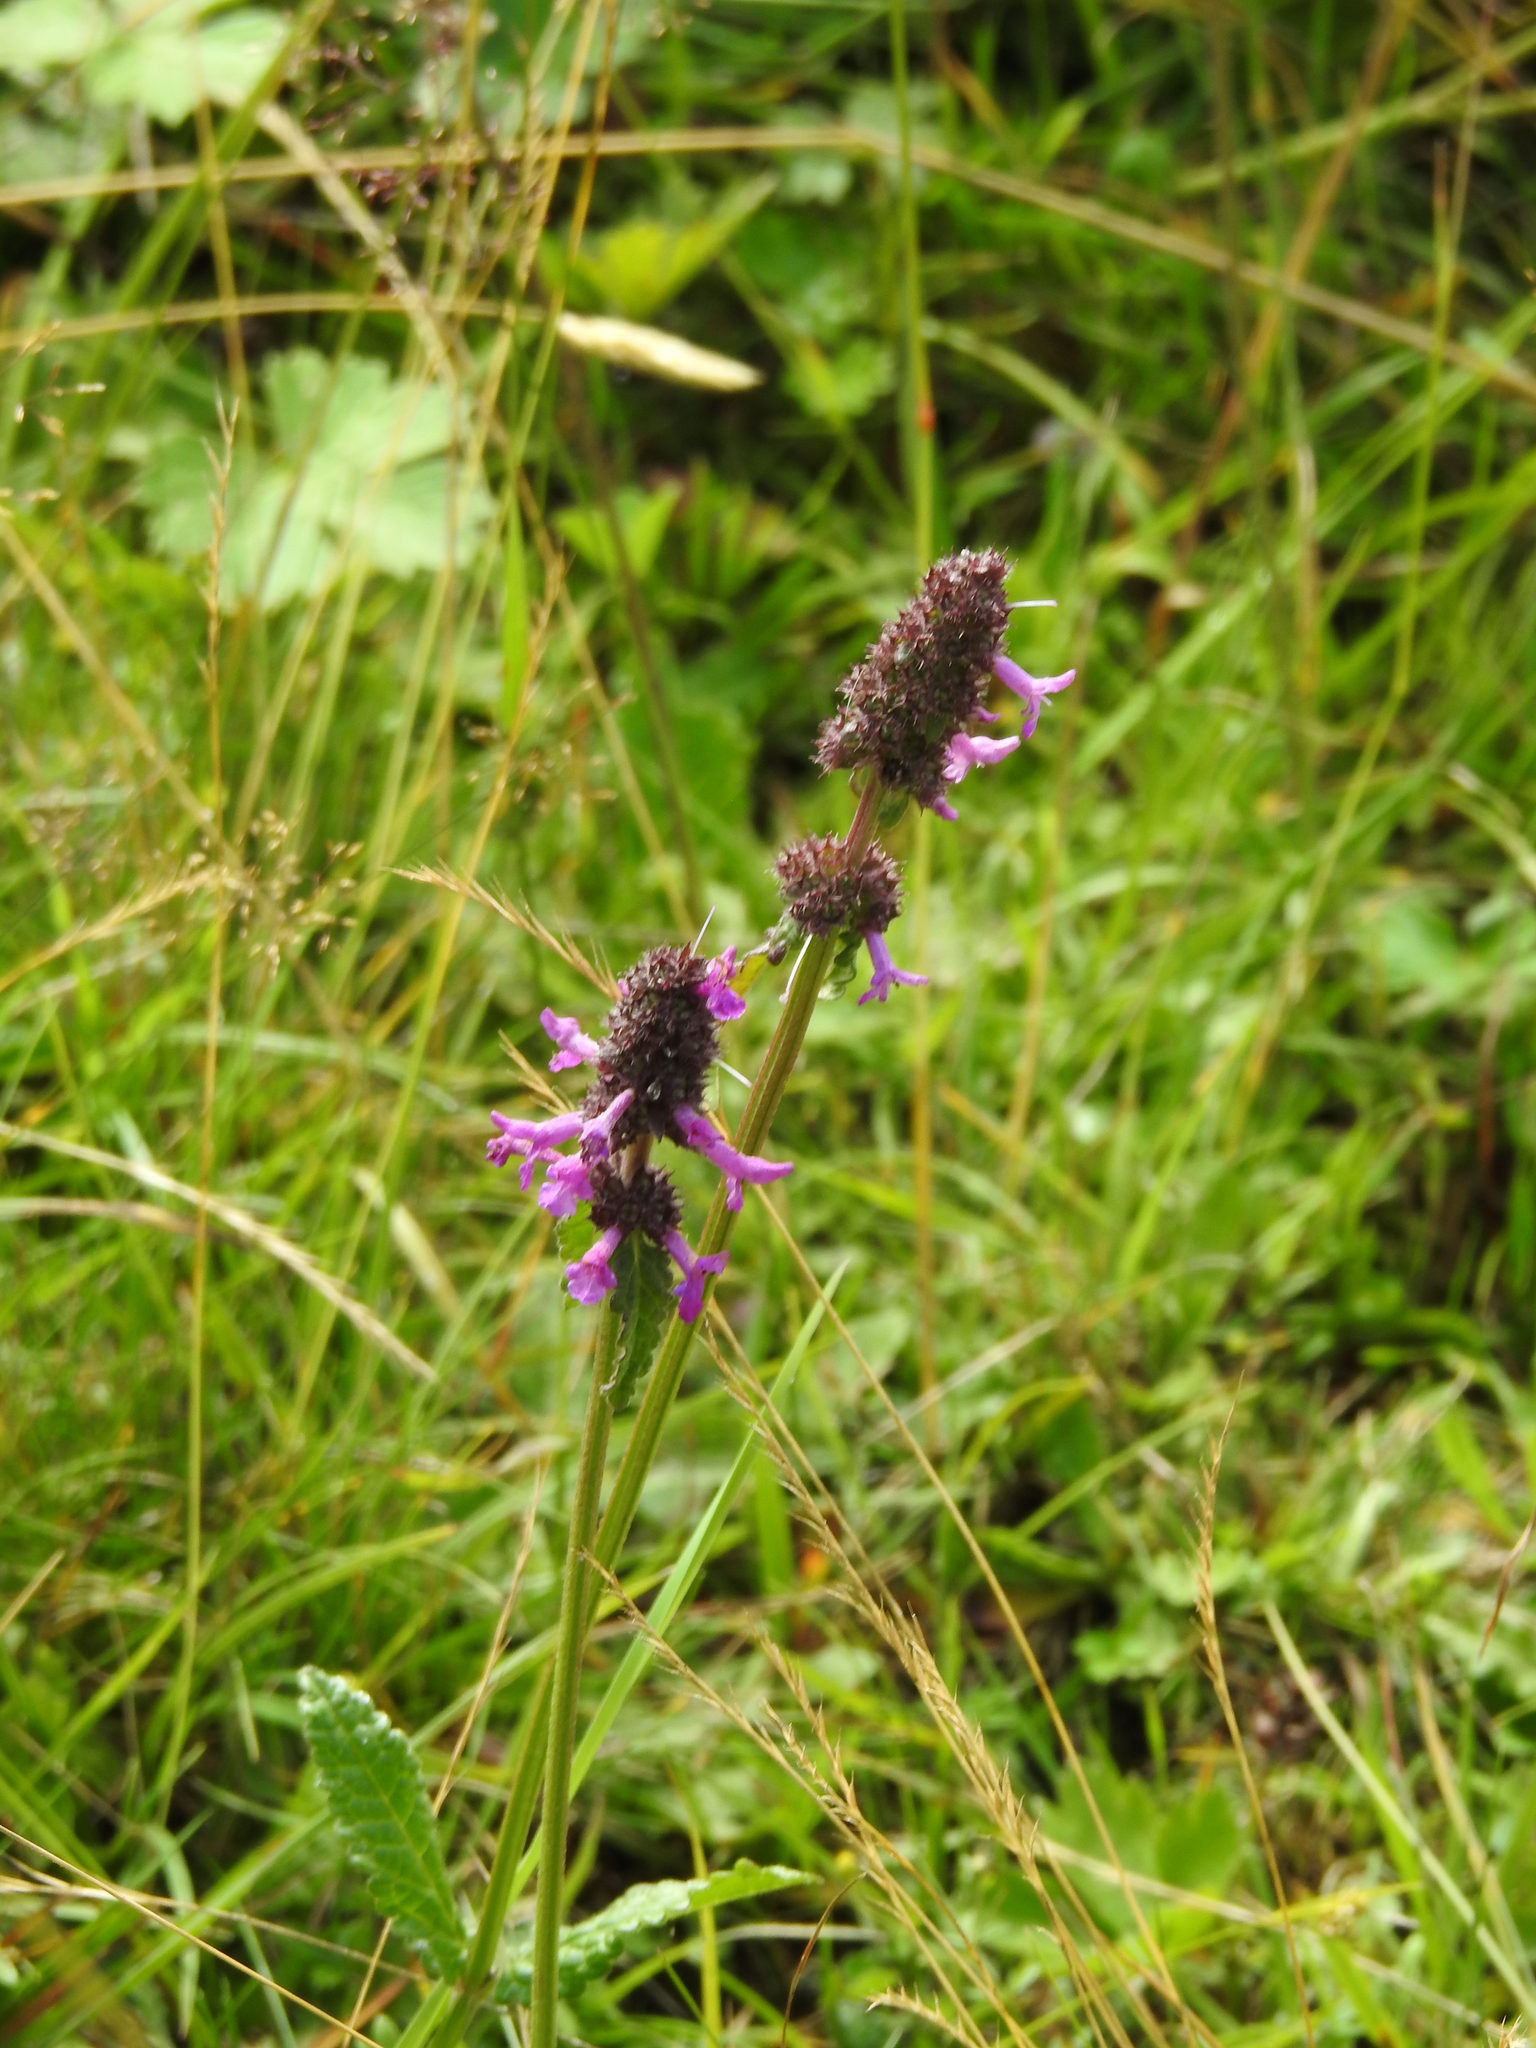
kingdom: Plantae
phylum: Tracheophyta
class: Magnoliopsida
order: Lamiales
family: Lamiaceae
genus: Betonica
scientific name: Betonica officinalis
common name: Bishop's-wort
